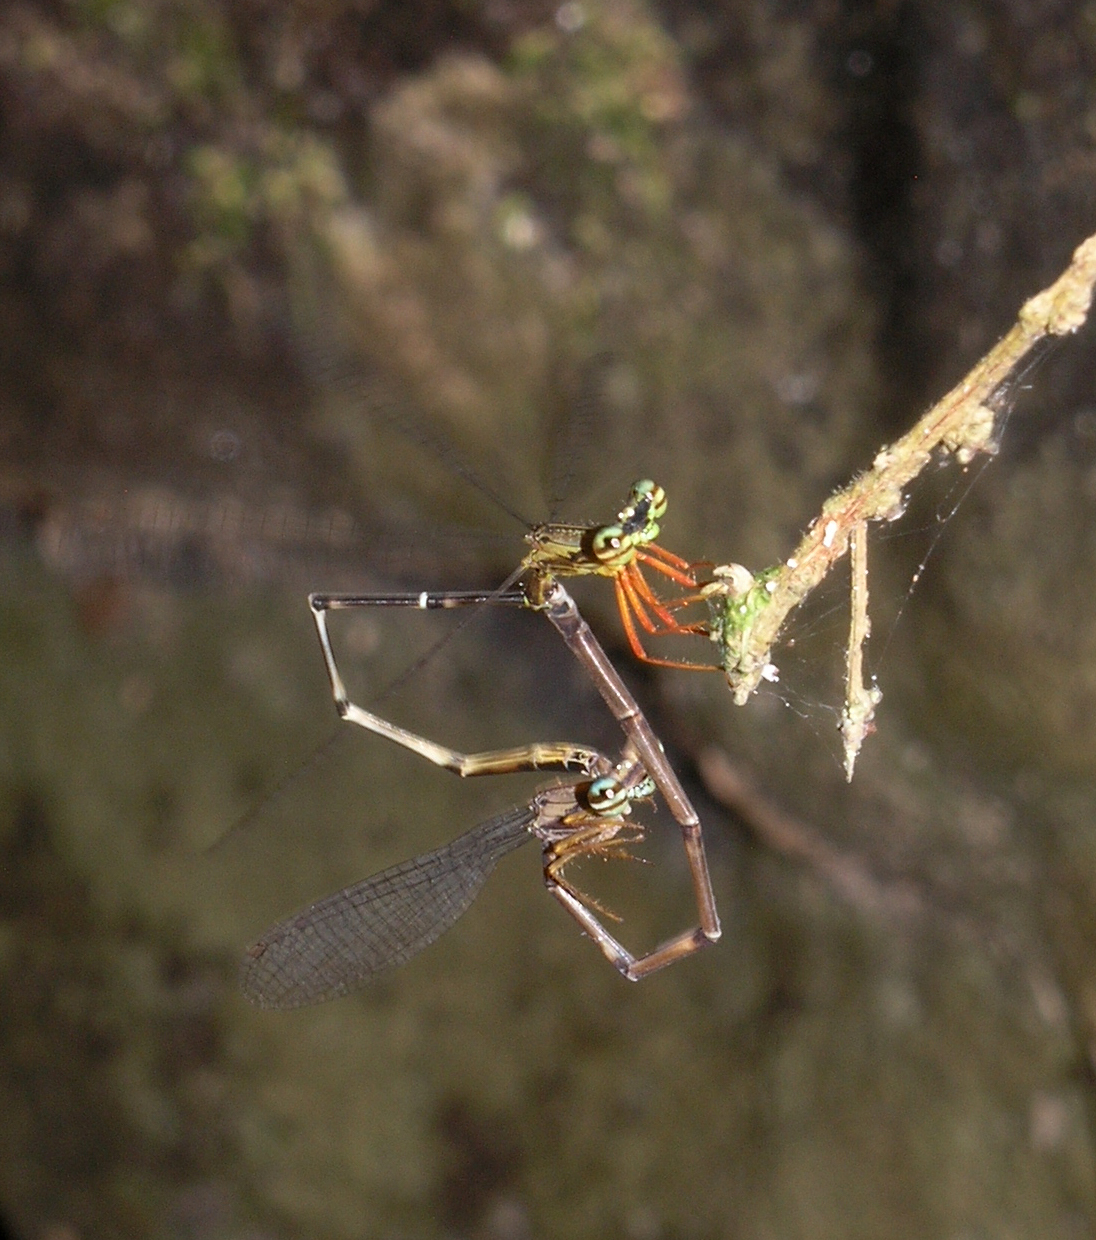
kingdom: Animalia
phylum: Arthropoda
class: Insecta
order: Odonata
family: Platycnemididae
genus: Copera
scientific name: Copera vittata
